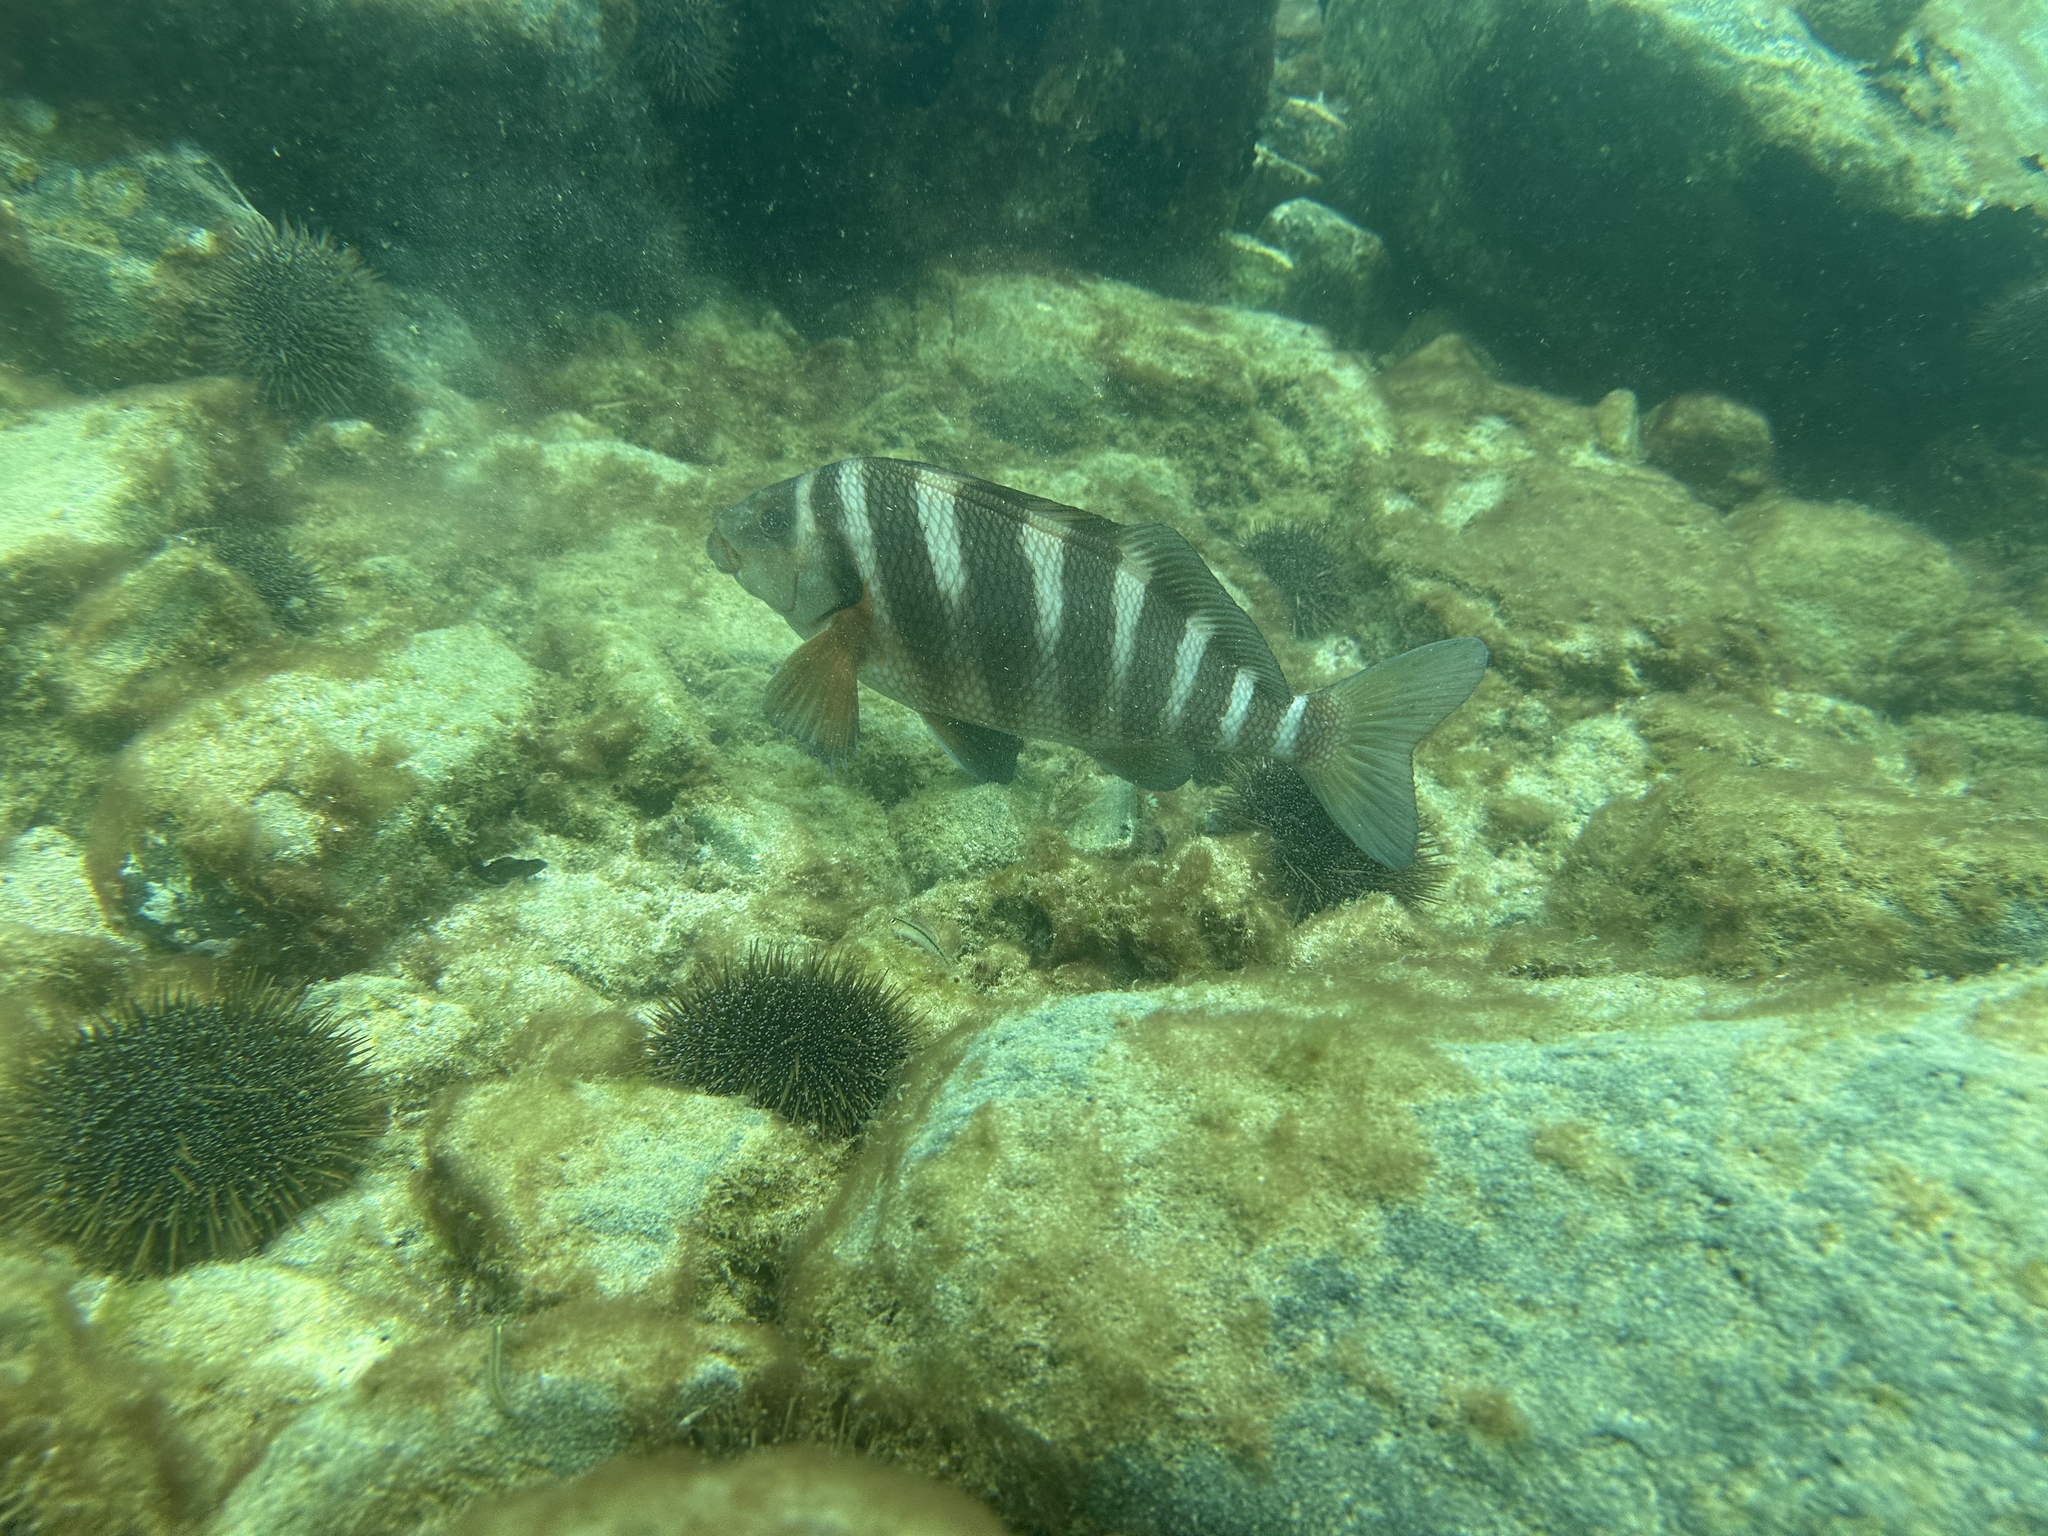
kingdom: Animalia
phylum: Chordata
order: Perciformes
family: Cheilodactylidae
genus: Cheilodactylus
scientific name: Cheilodactylus spectabilis
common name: Red moki
